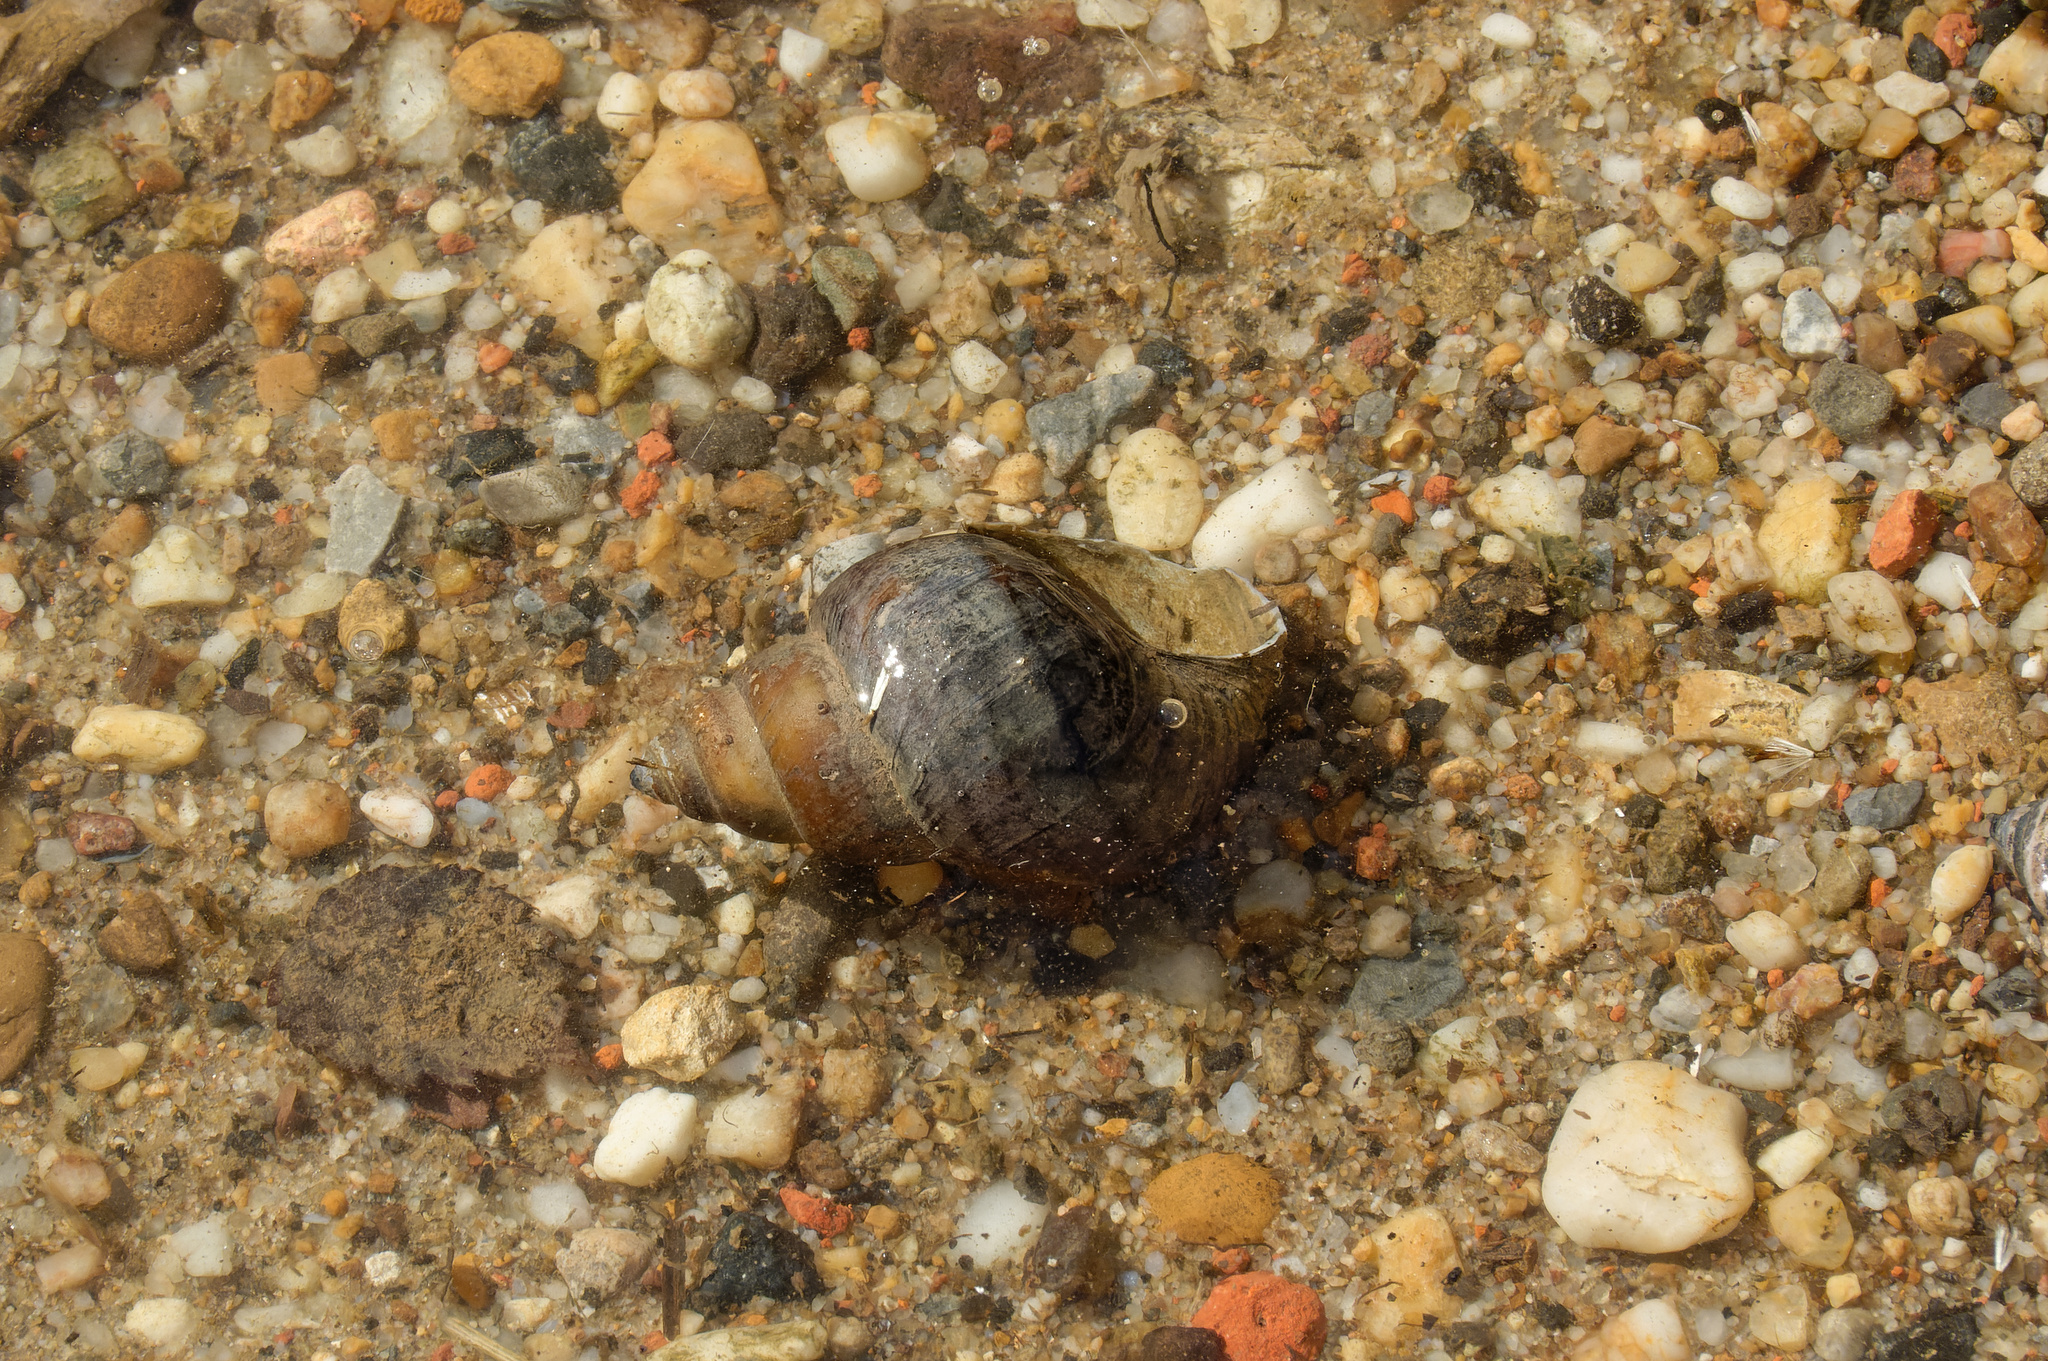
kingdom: Animalia
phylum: Mollusca
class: Gastropoda
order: Architaenioglossa
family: Viviparidae
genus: Cipangopaludina
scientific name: Cipangopaludina chinensis
